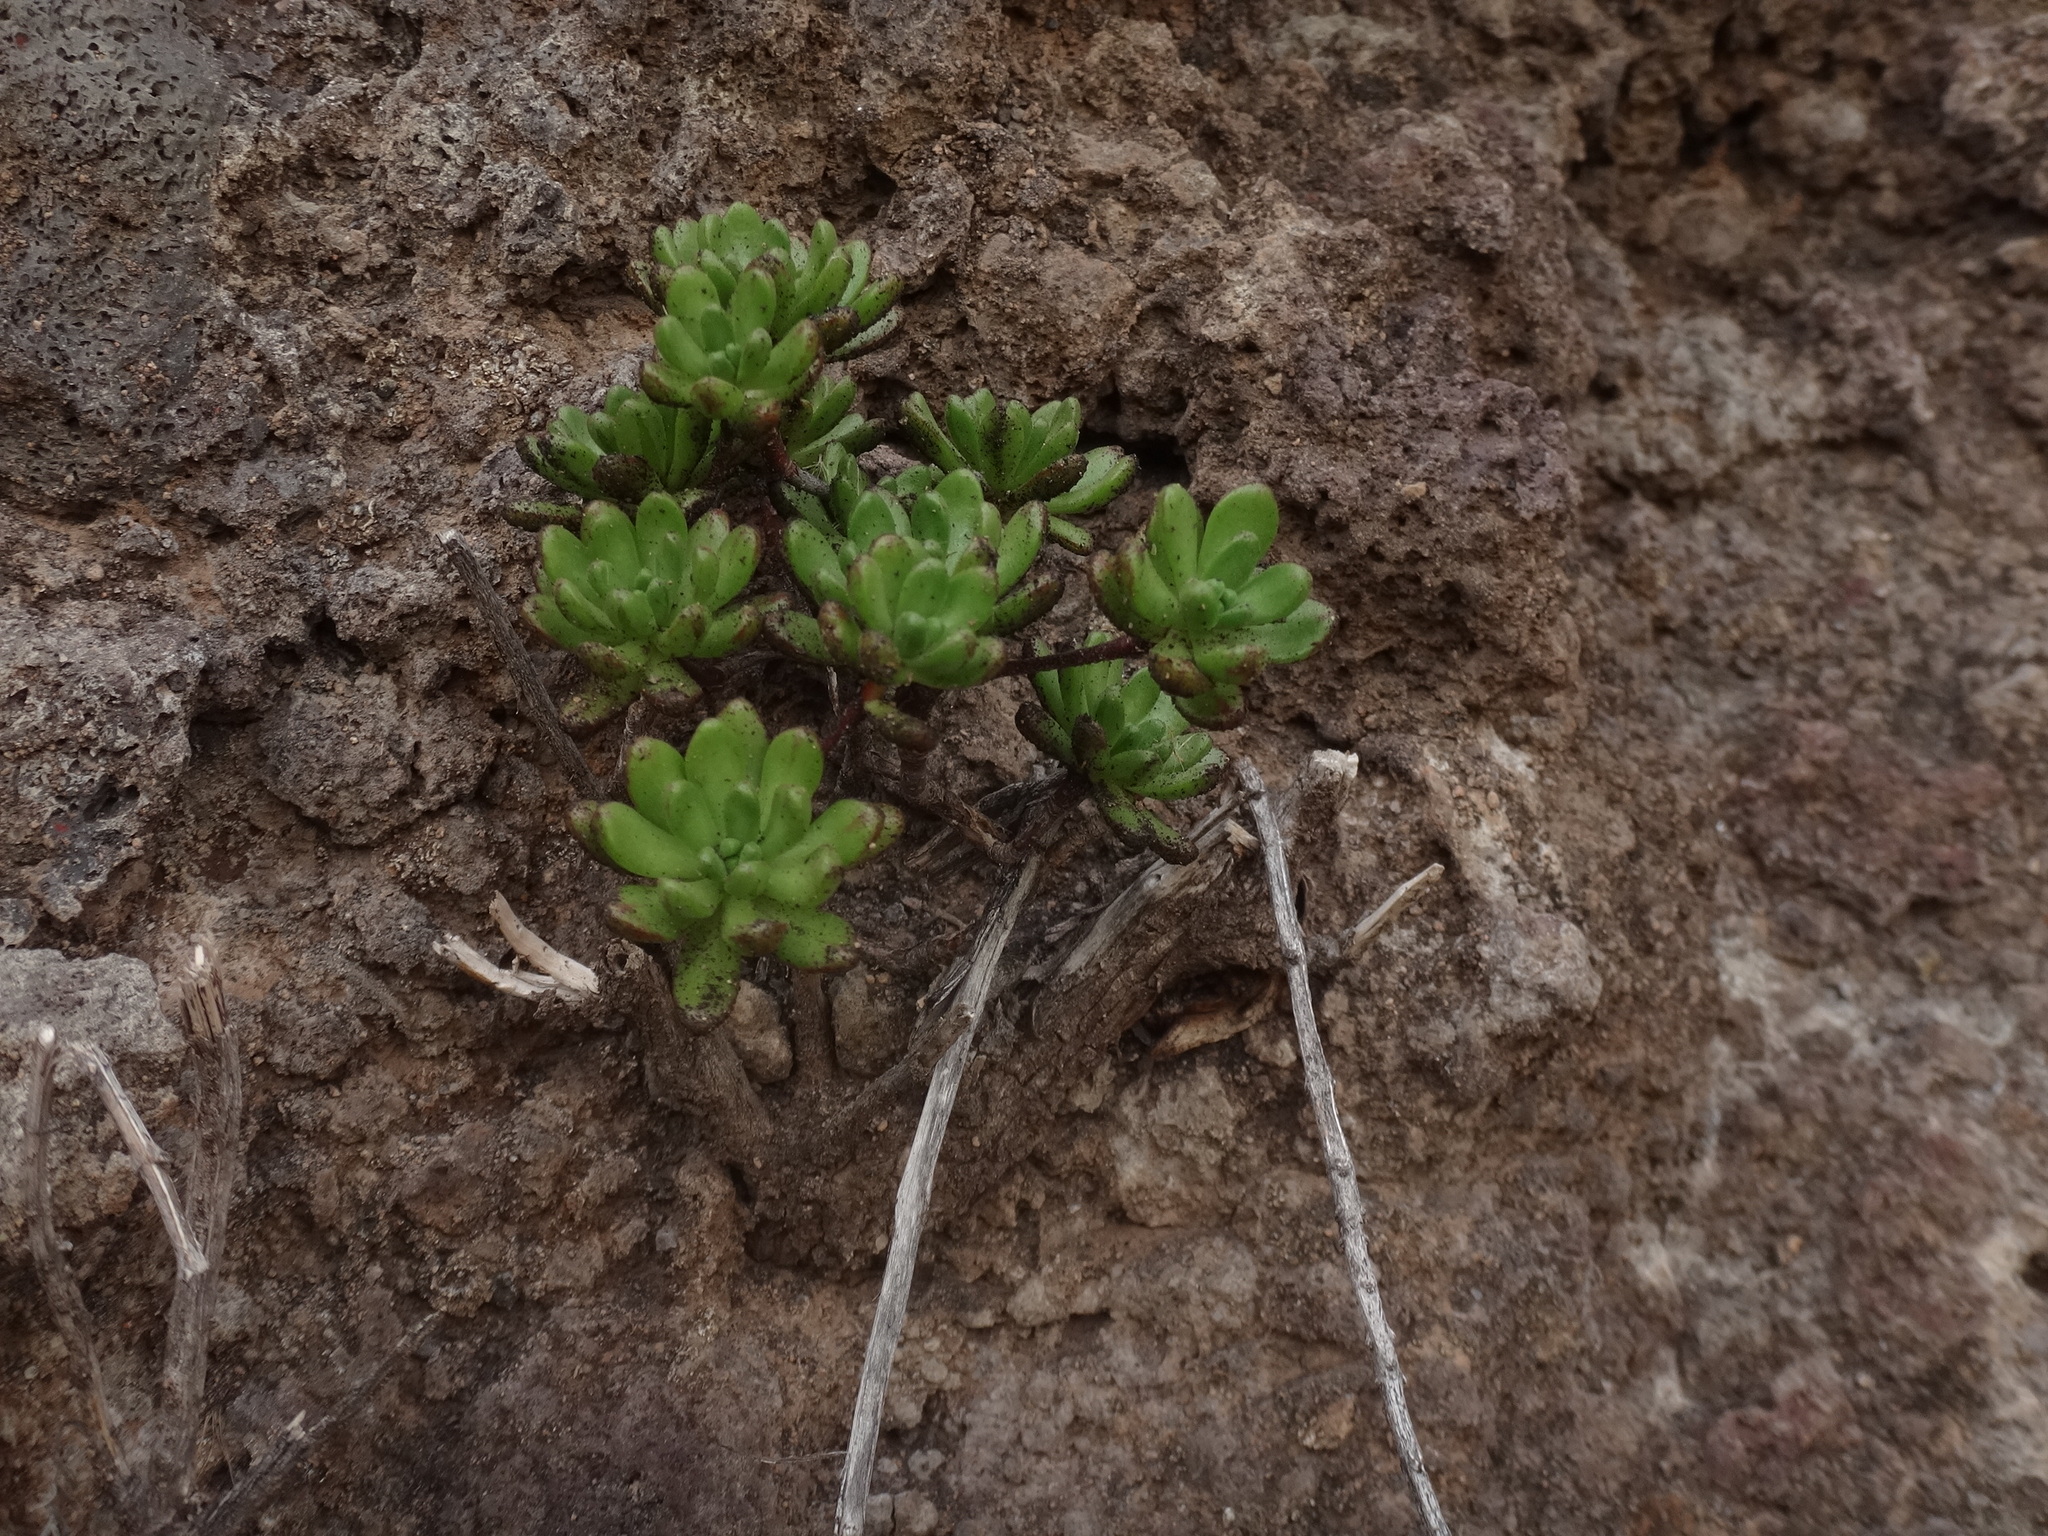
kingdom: Plantae
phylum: Tracheophyta
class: Magnoliopsida
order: Saxifragales
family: Crassulaceae
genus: Aeonium
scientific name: Aeonium sedifolium
